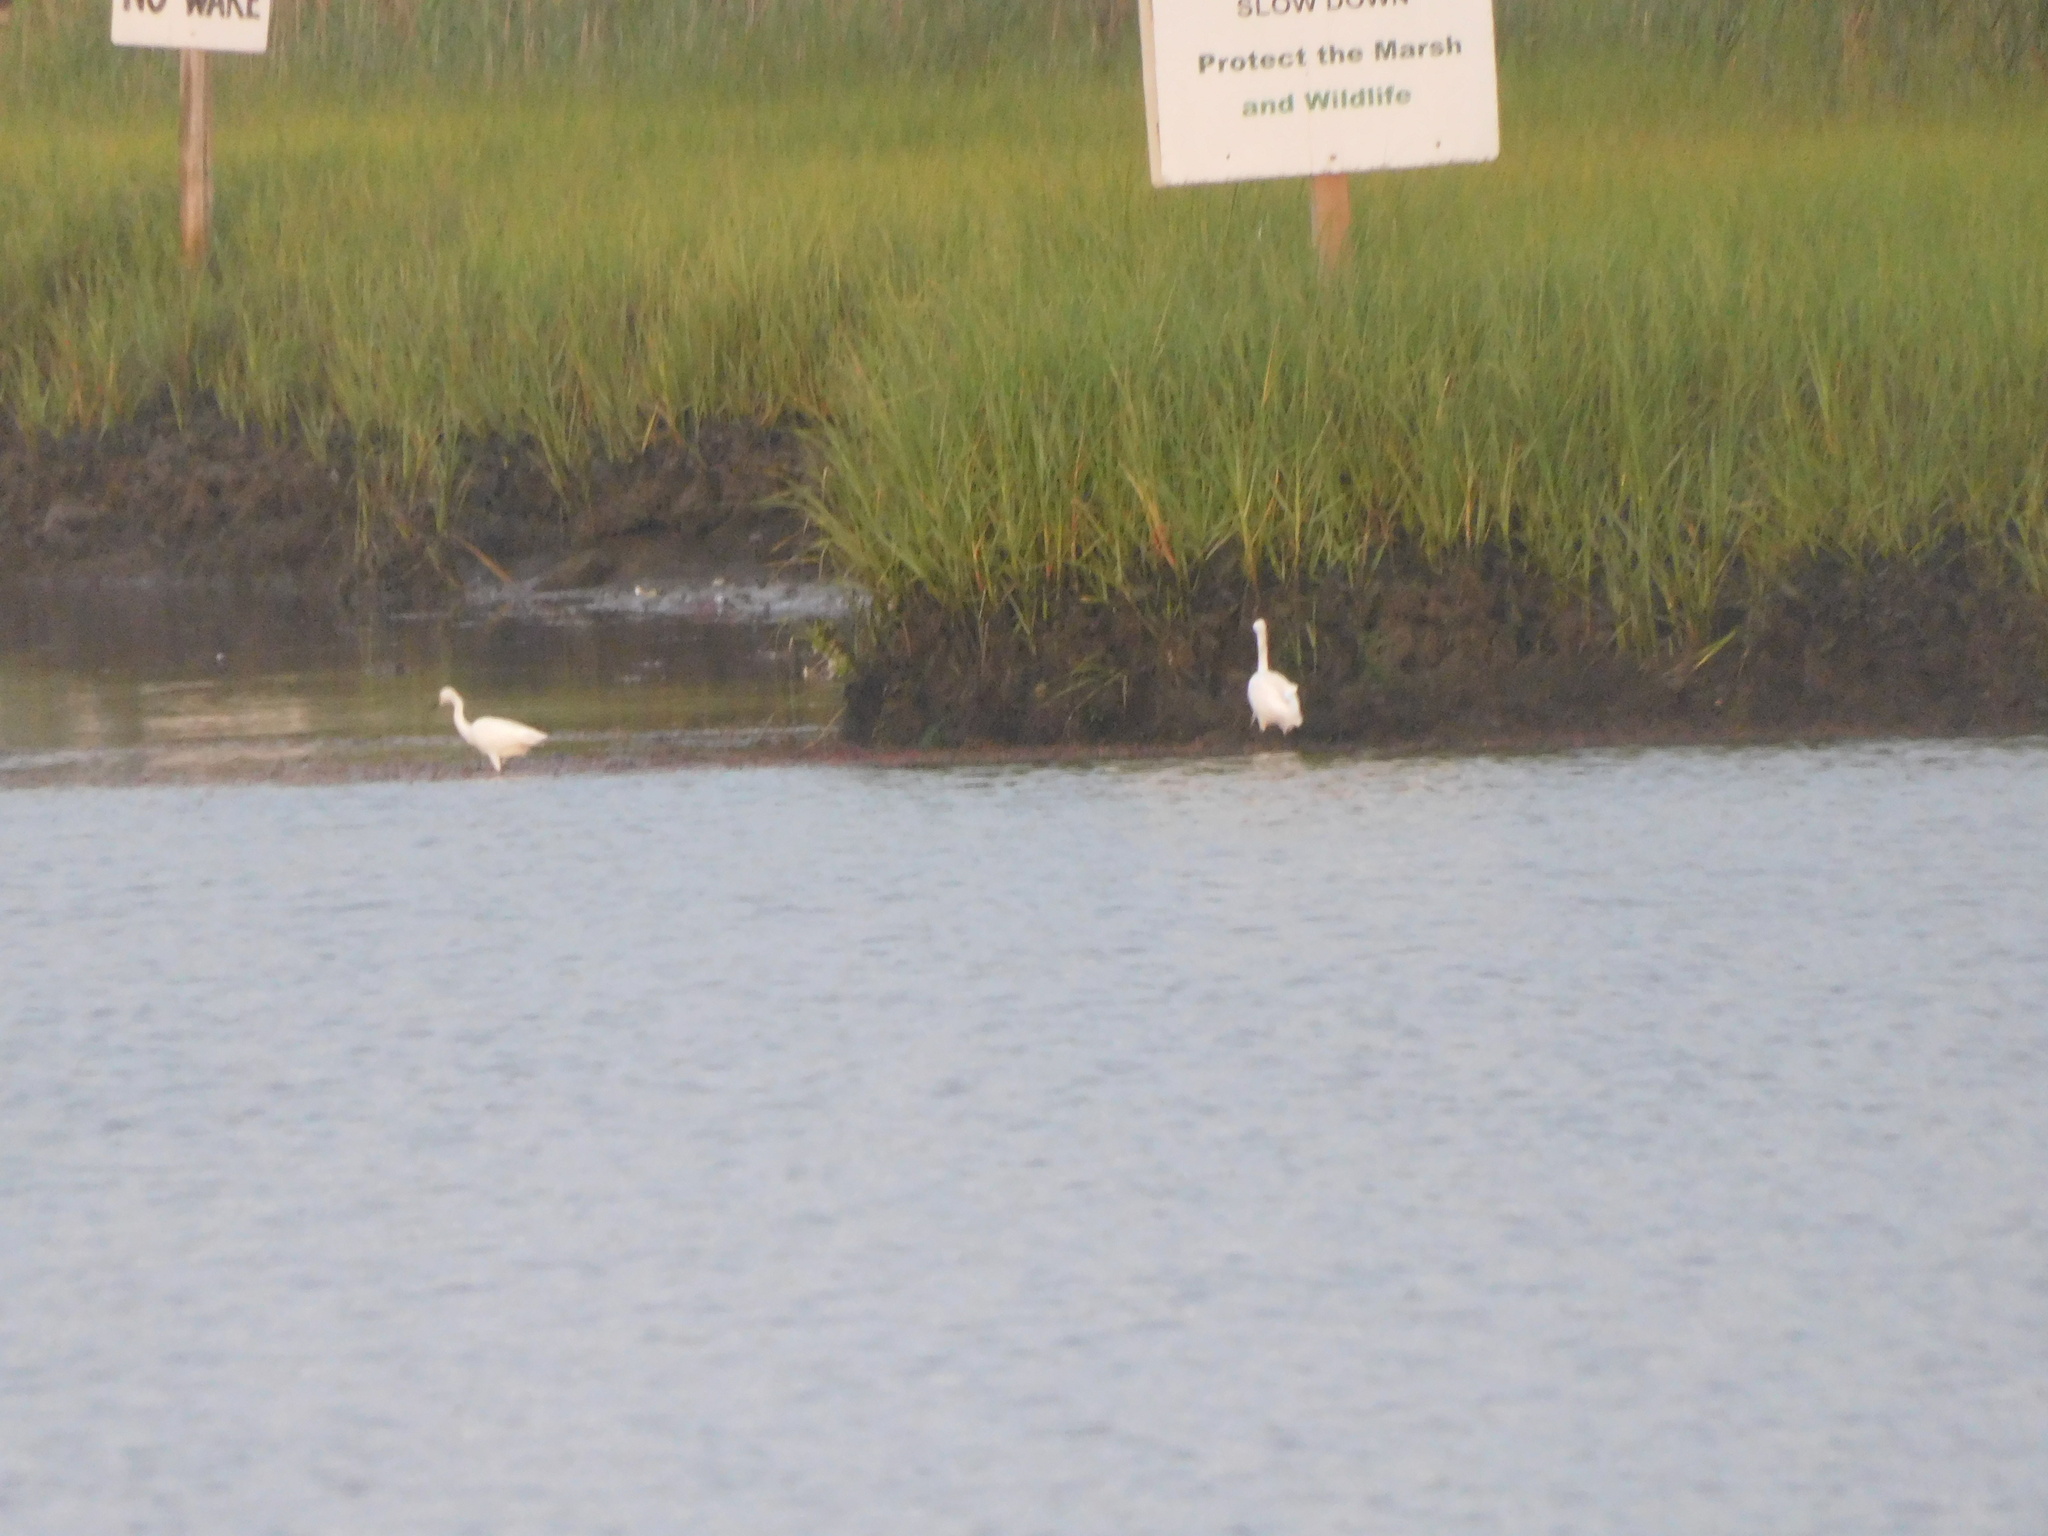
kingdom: Animalia
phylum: Chordata
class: Aves
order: Pelecaniformes
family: Ardeidae
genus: Egretta
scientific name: Egretta thula
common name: Snowy egret
